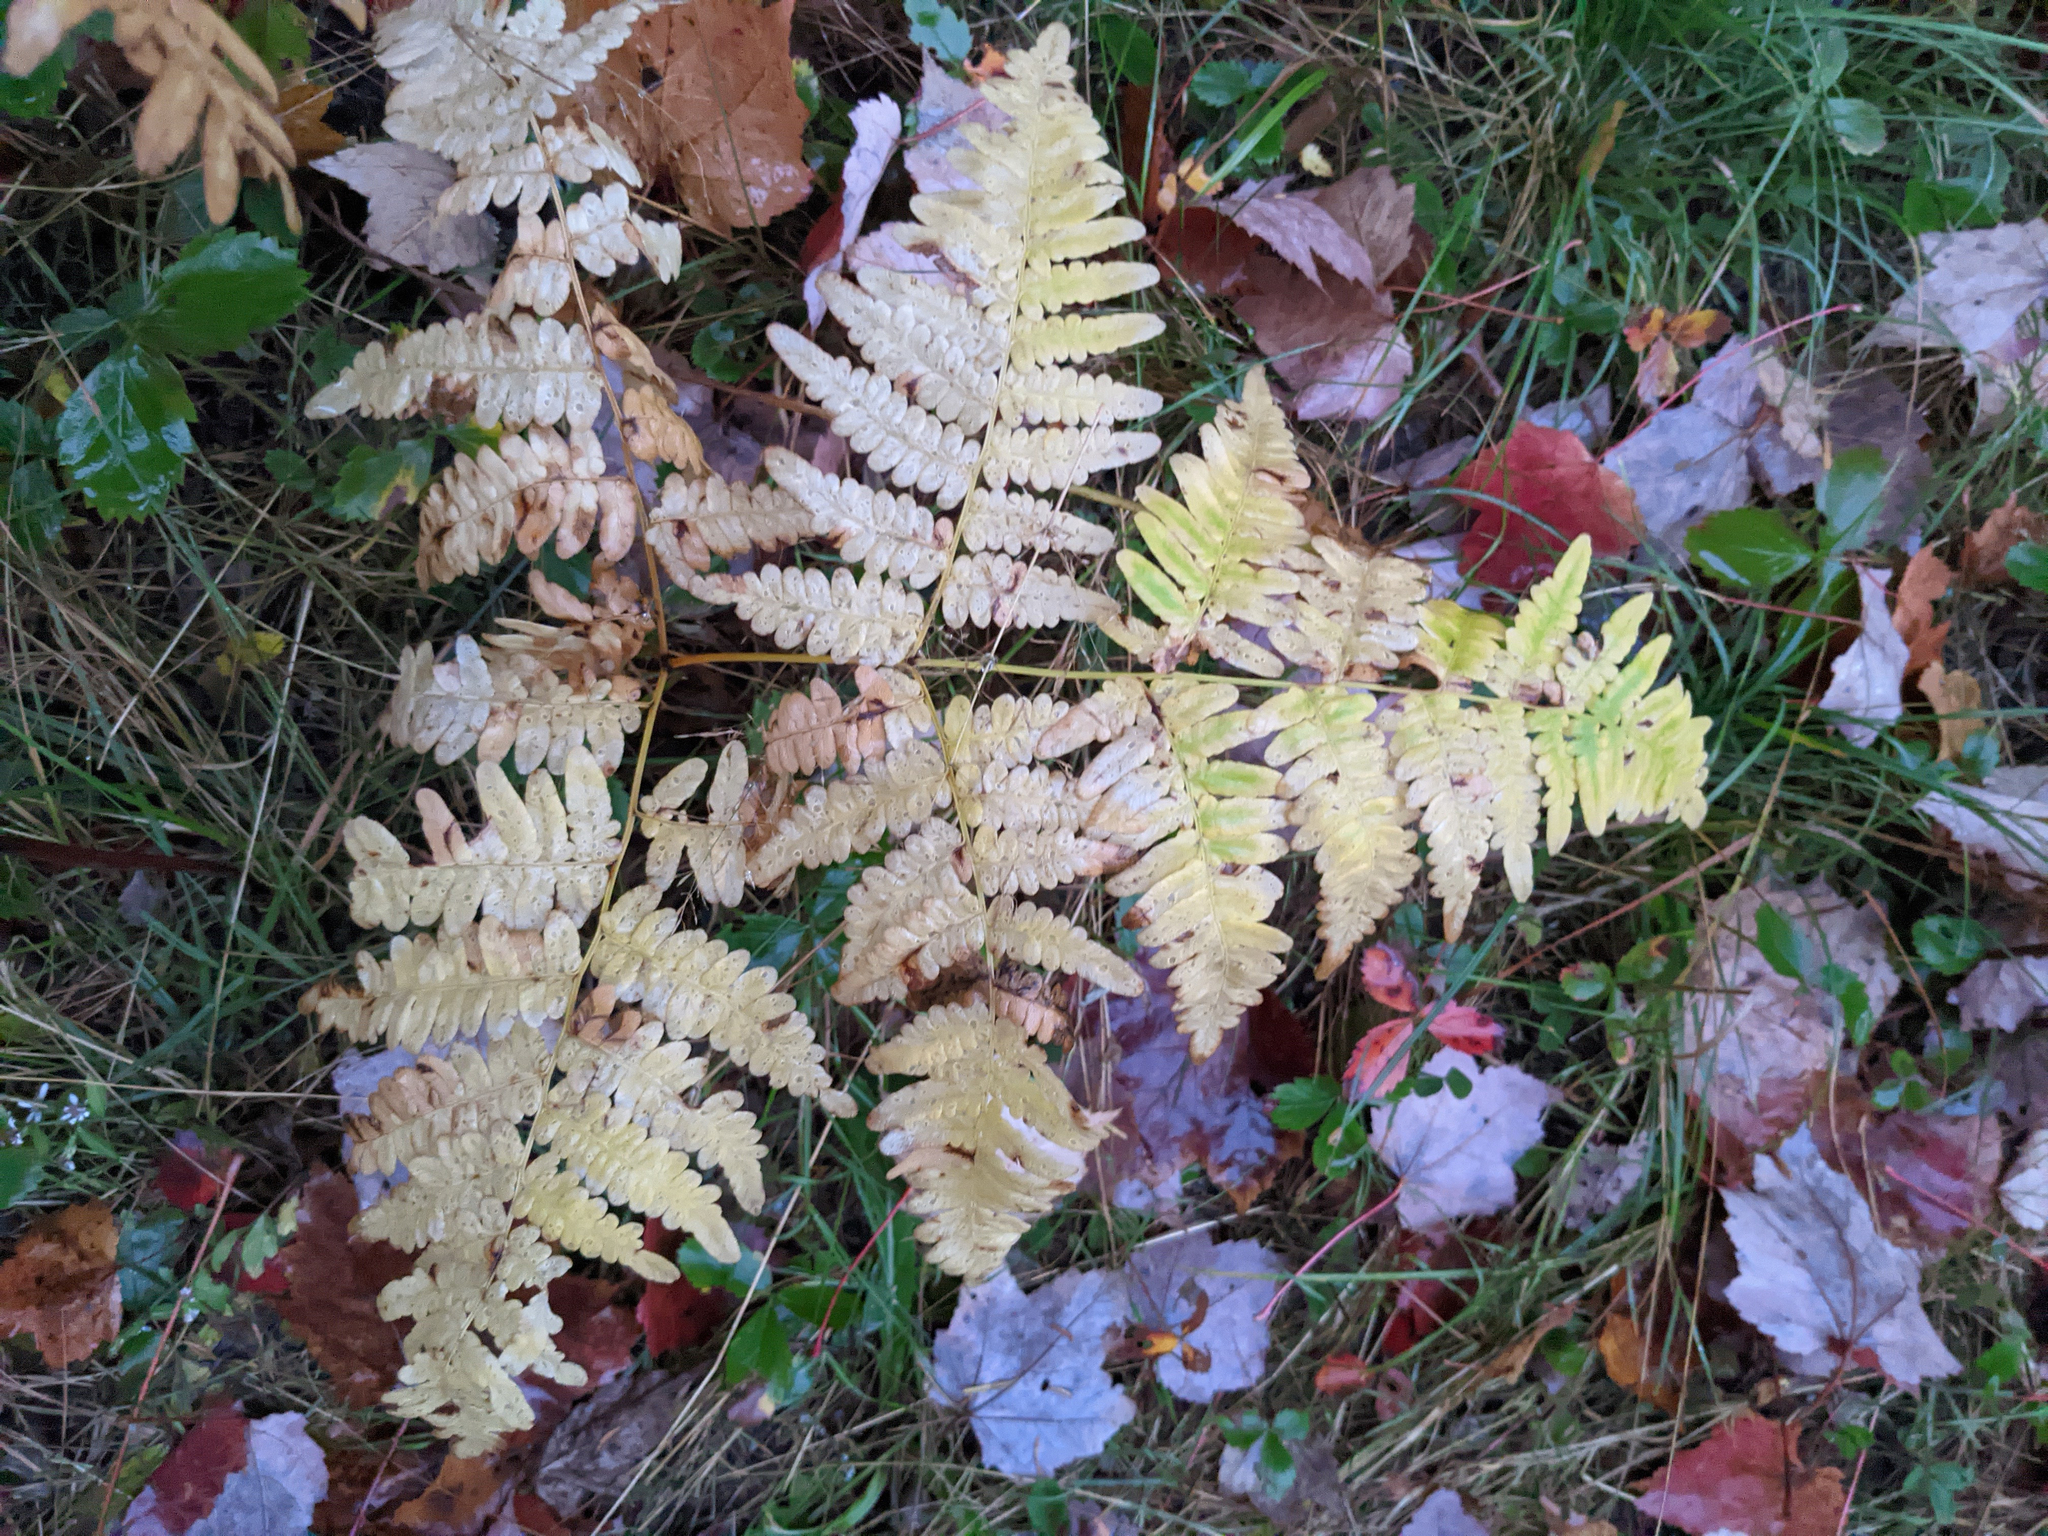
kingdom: Plantae
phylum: Tracheophyta
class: Polypodiopsida
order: Polypodiales
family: Dennstaedtiaceae
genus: Pteridium
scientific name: Pteridium aquilinum
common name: Bracken
